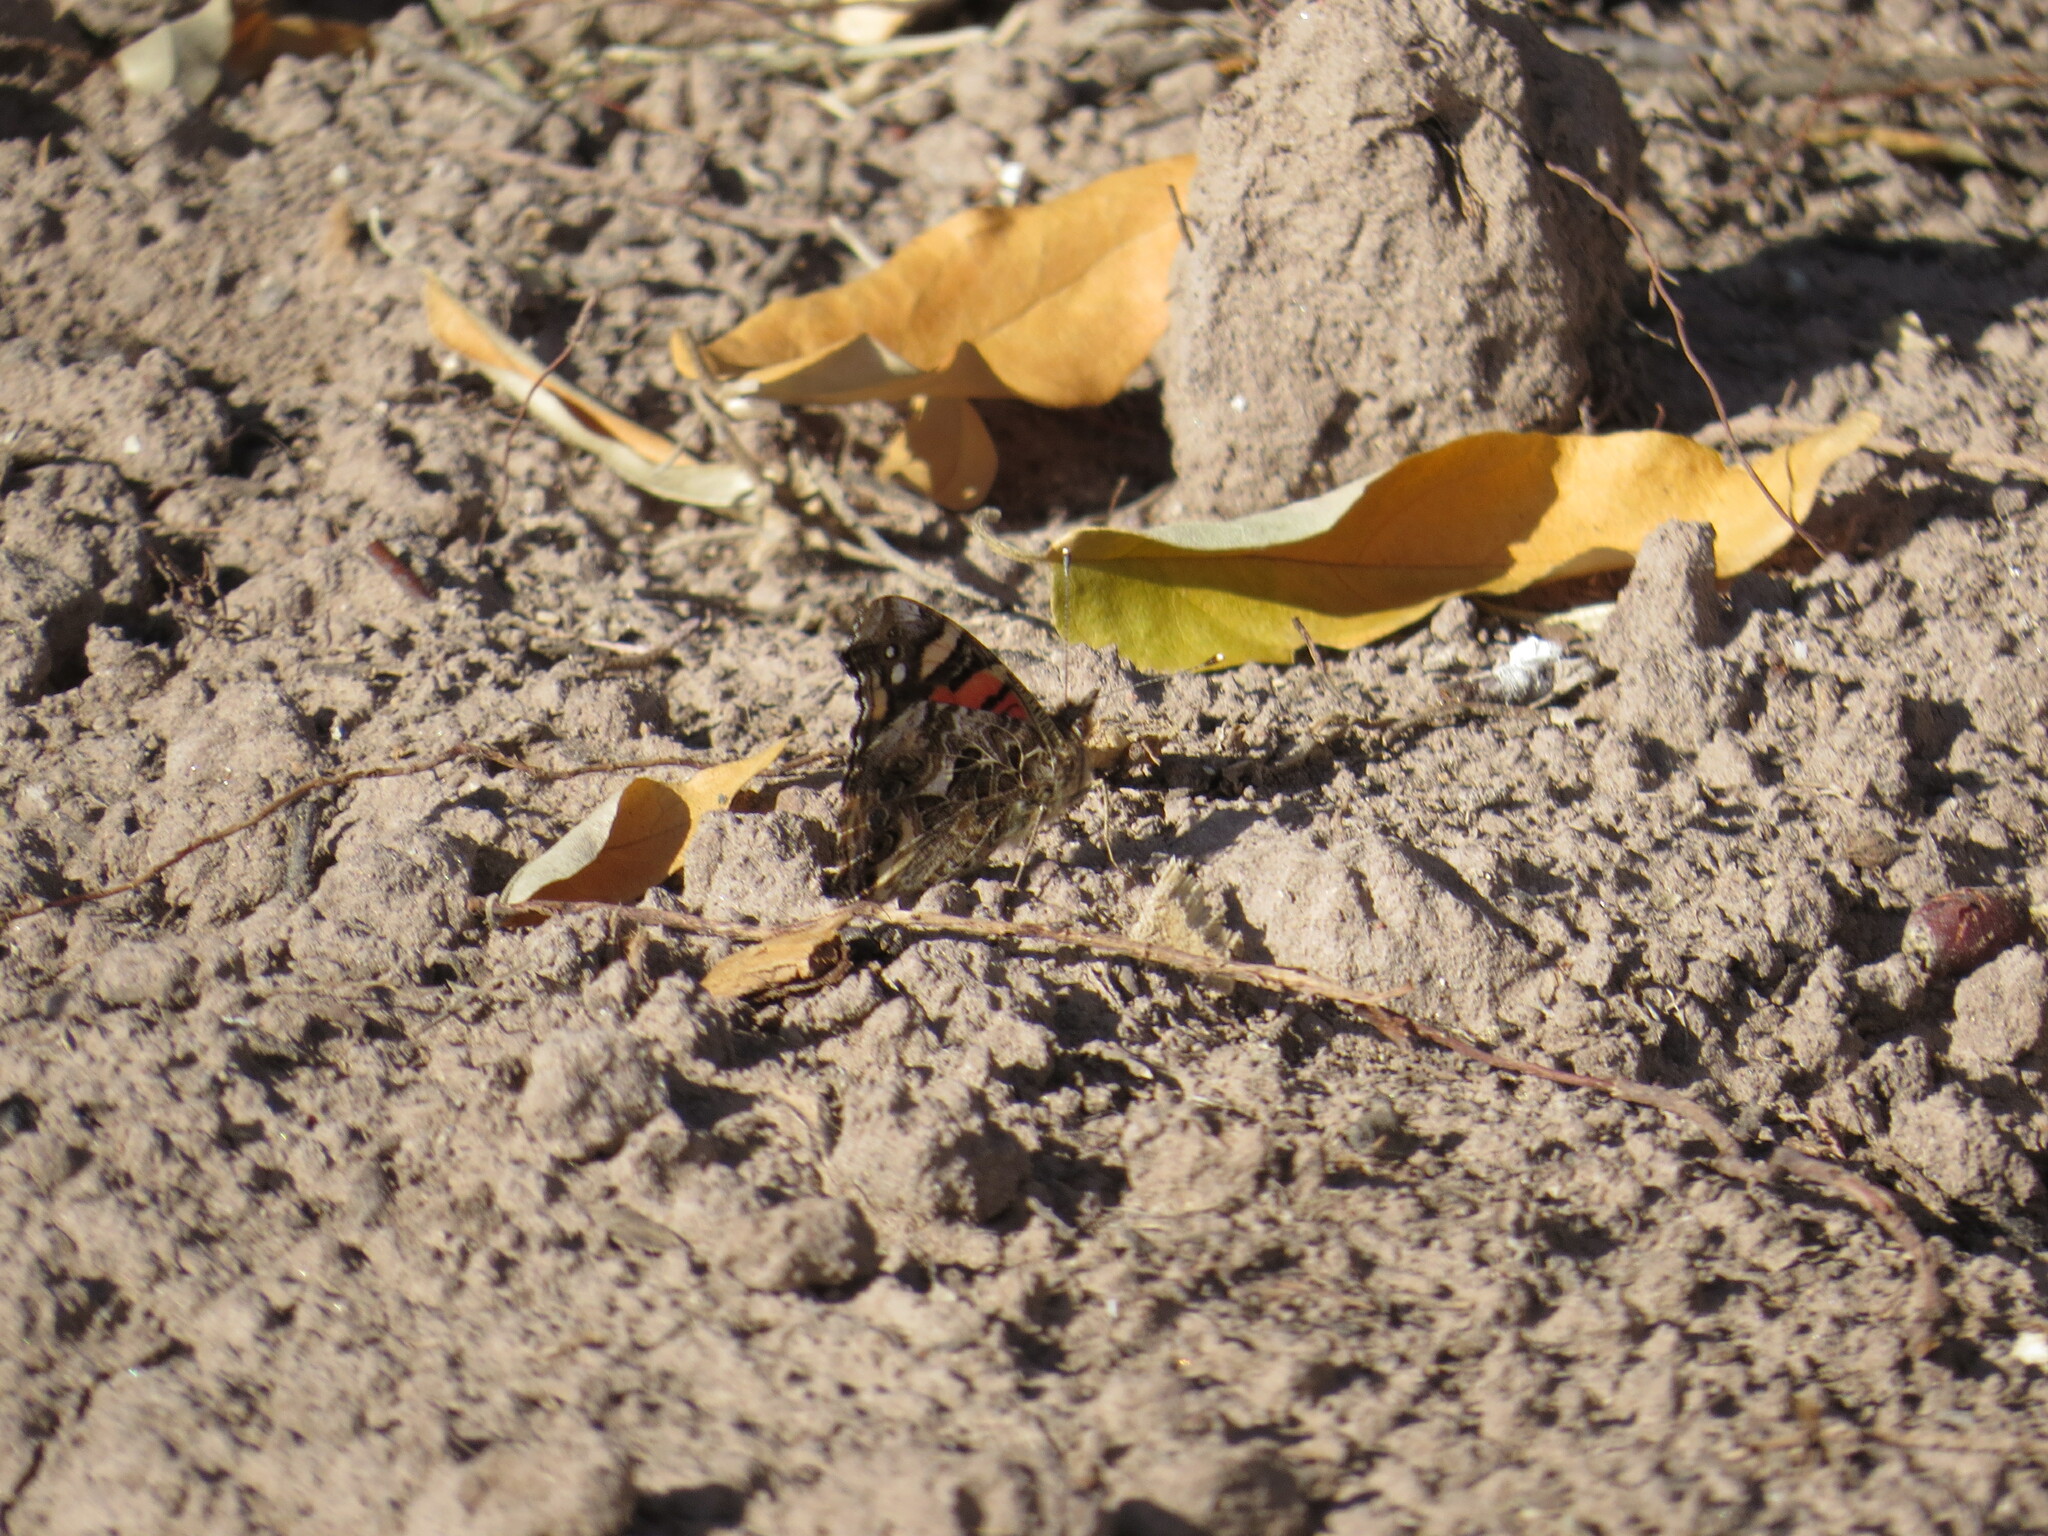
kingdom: Animalia
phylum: Arthropoda
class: Insecta
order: Lepidoptera
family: Nymphalidae
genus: Vanessa
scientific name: Vanessa carye
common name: Subtropical lady
